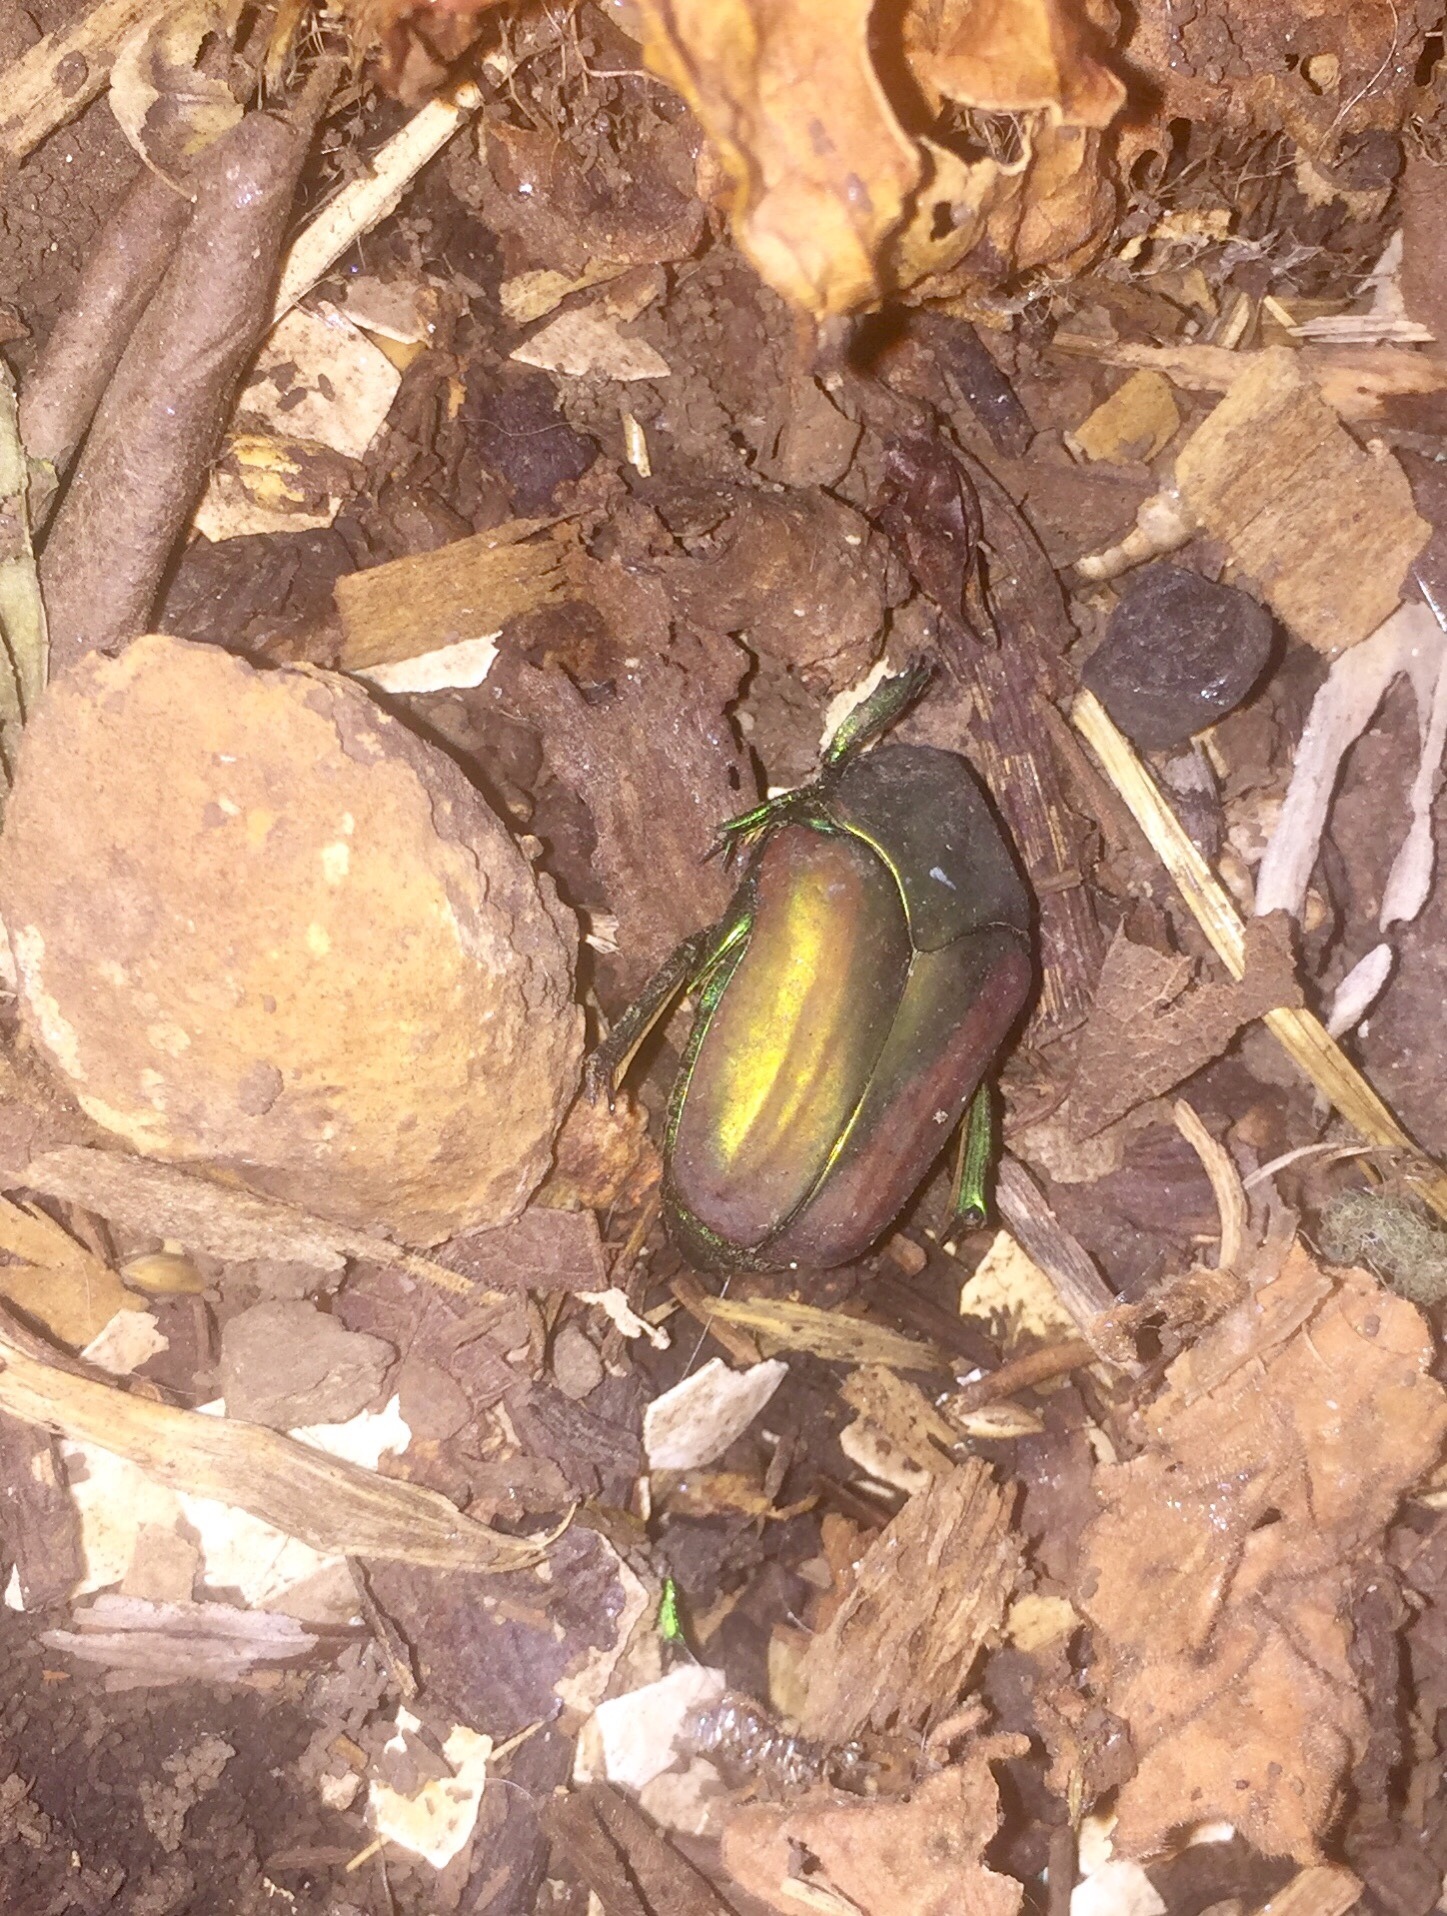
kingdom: Animalia
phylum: Arthropoda
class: Insecta
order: Coleoptera
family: Scarabaeidae
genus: Cotinis
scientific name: Cotinis mutabilis
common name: Figeater beetle
